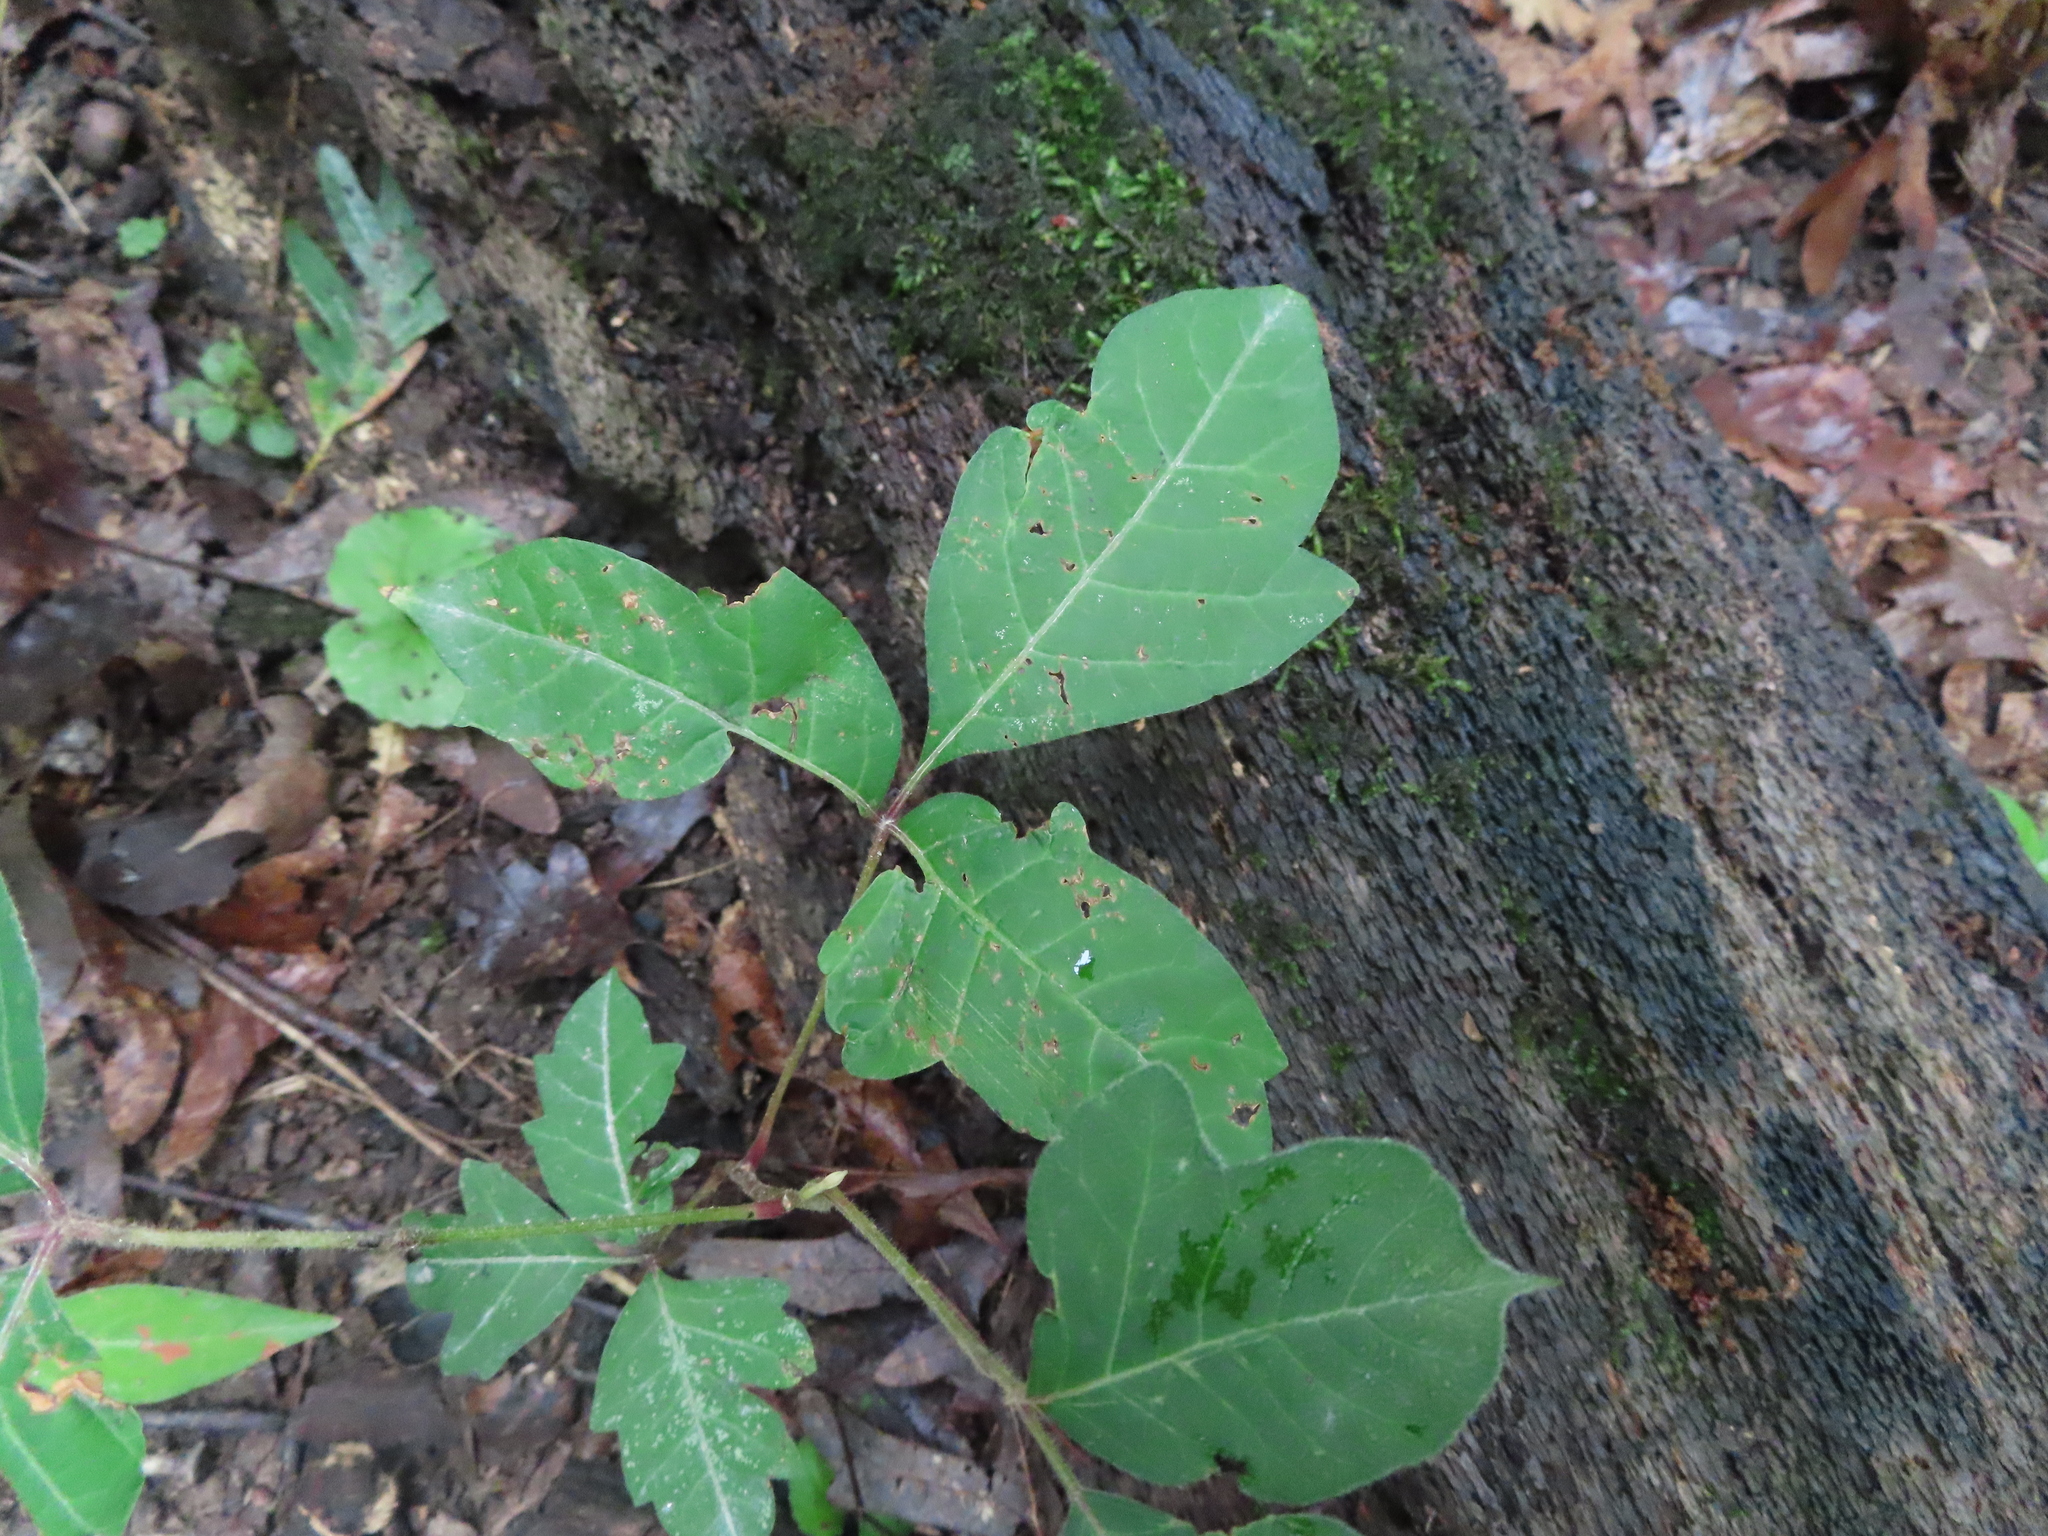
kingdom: Plantae
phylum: Tracheophyta
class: Magnoliopsida
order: Sapindales
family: Anacardiaceae
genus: Toxicodendron
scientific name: Toxicodendron radicans
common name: Poison ivy
